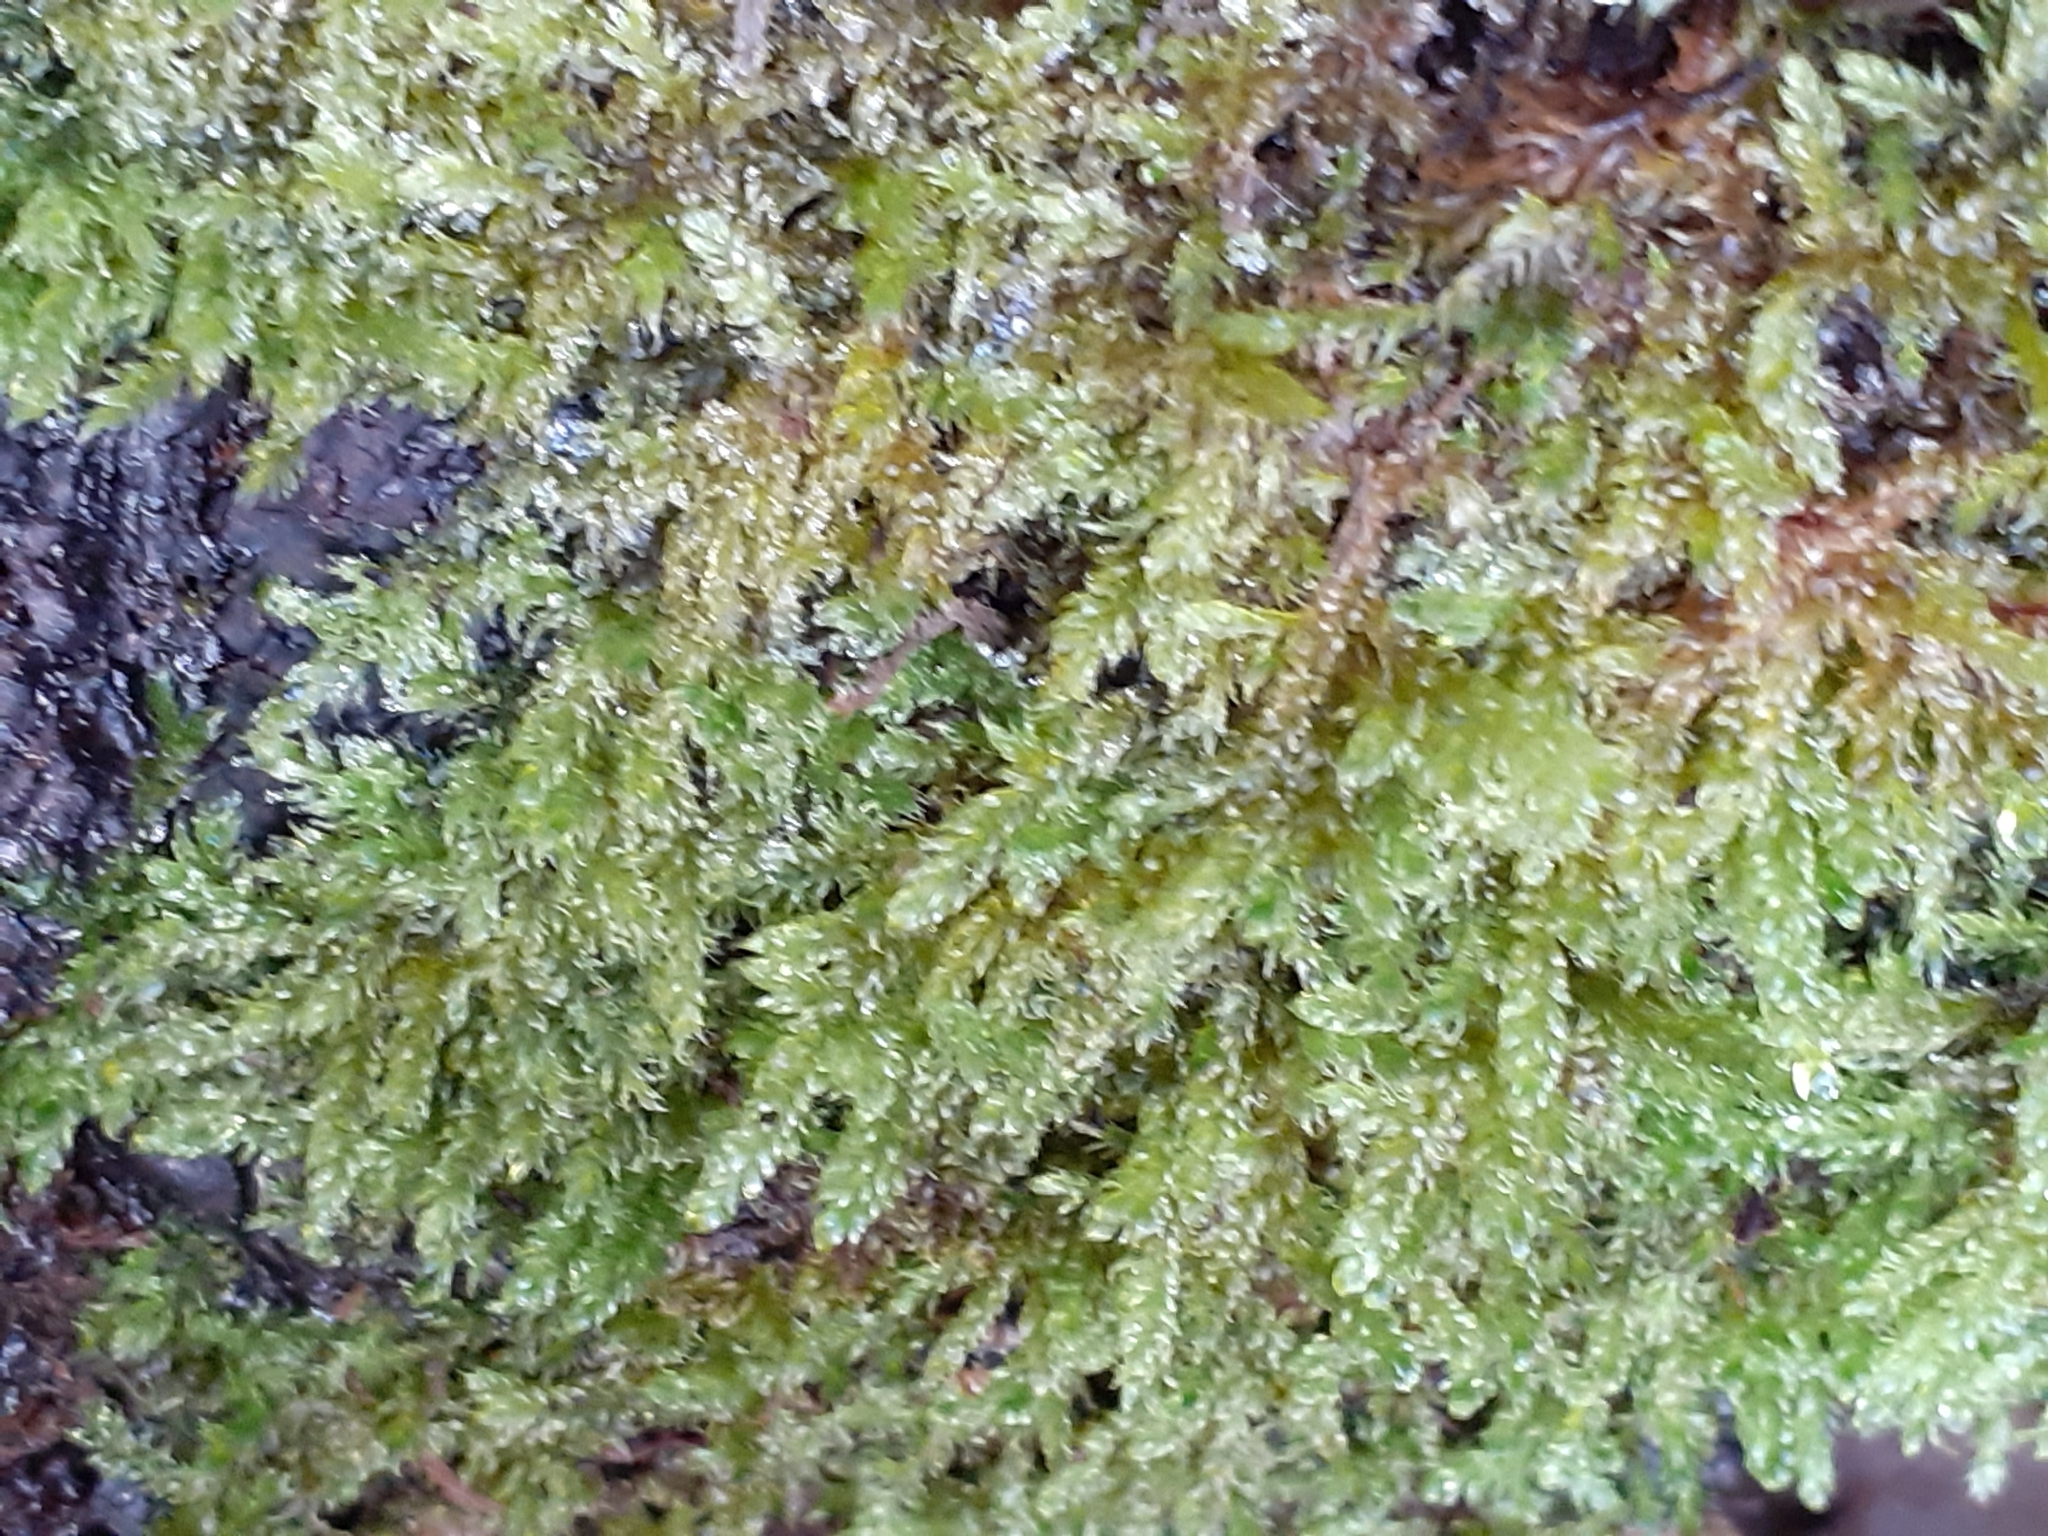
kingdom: Plantae
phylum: Bryophyta
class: Bryopsida
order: Hypnales
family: Hypnaceae
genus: Hypnum
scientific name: Hypnum cupressiforme
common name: Cypress-leaved plait-moss
